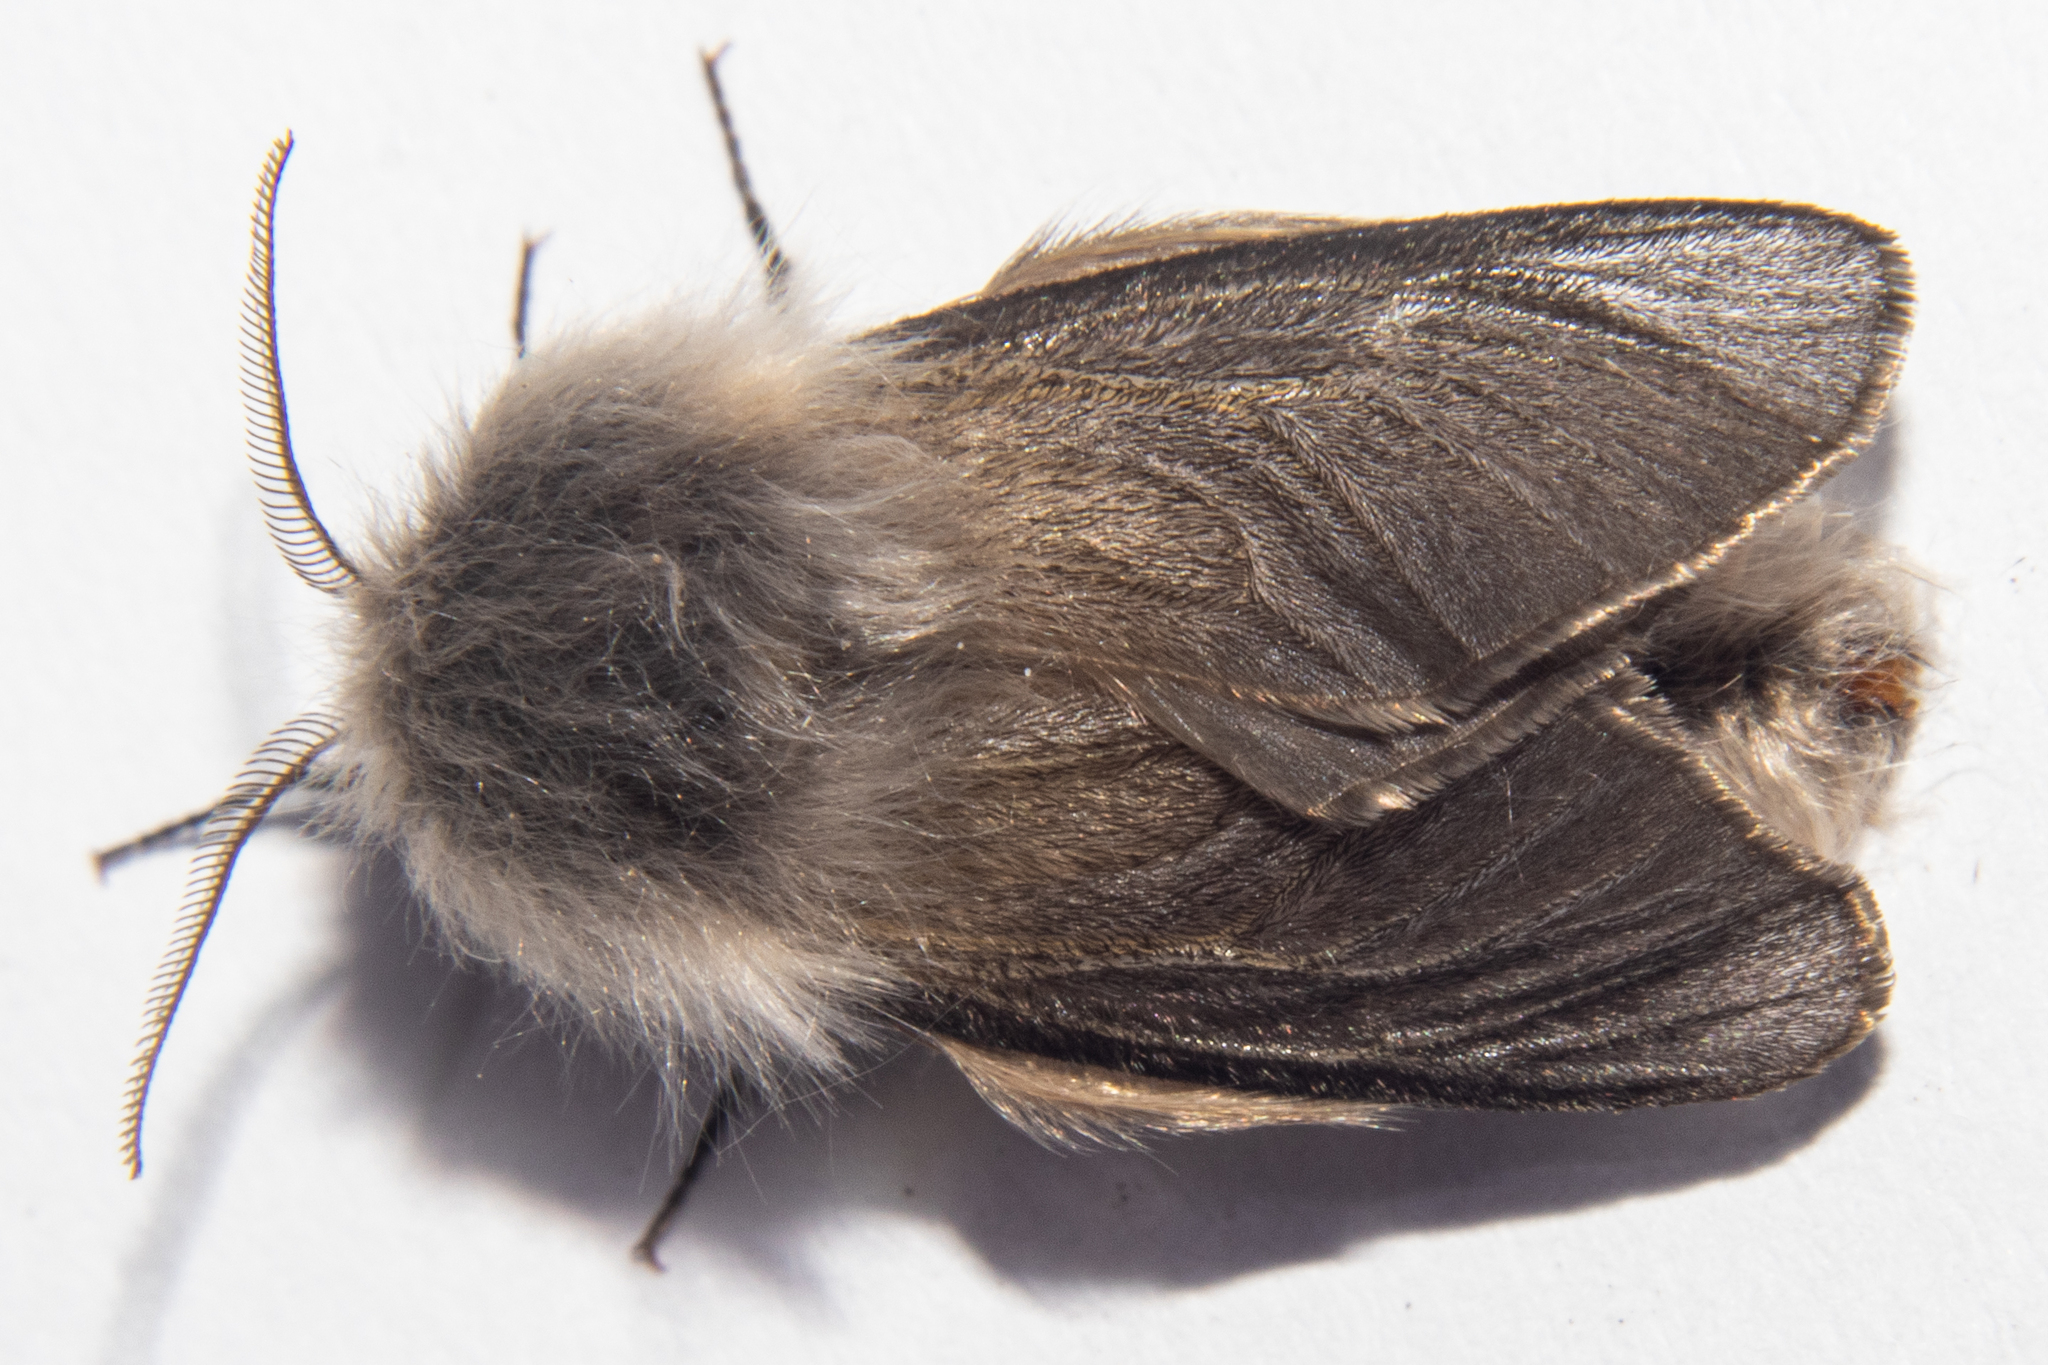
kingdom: Animalia
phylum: Arthropoda
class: Insecta
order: Lepidoptera
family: Psychidae
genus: Orophora
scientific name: Orophora unicolor
